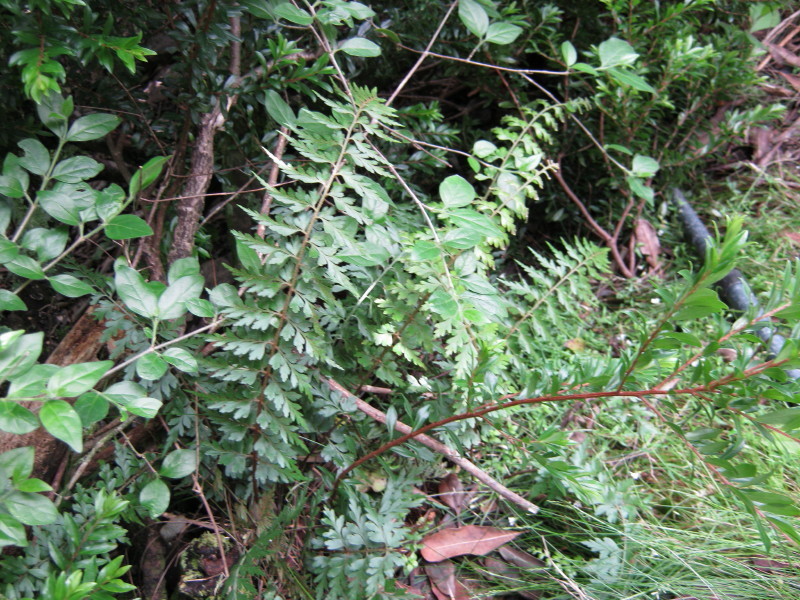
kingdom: Plantae
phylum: Tracheophyta
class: Polypodiopsida
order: Polypodiales
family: Aspleniaceae
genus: Asplenium
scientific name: Asplenium aethiopicum
